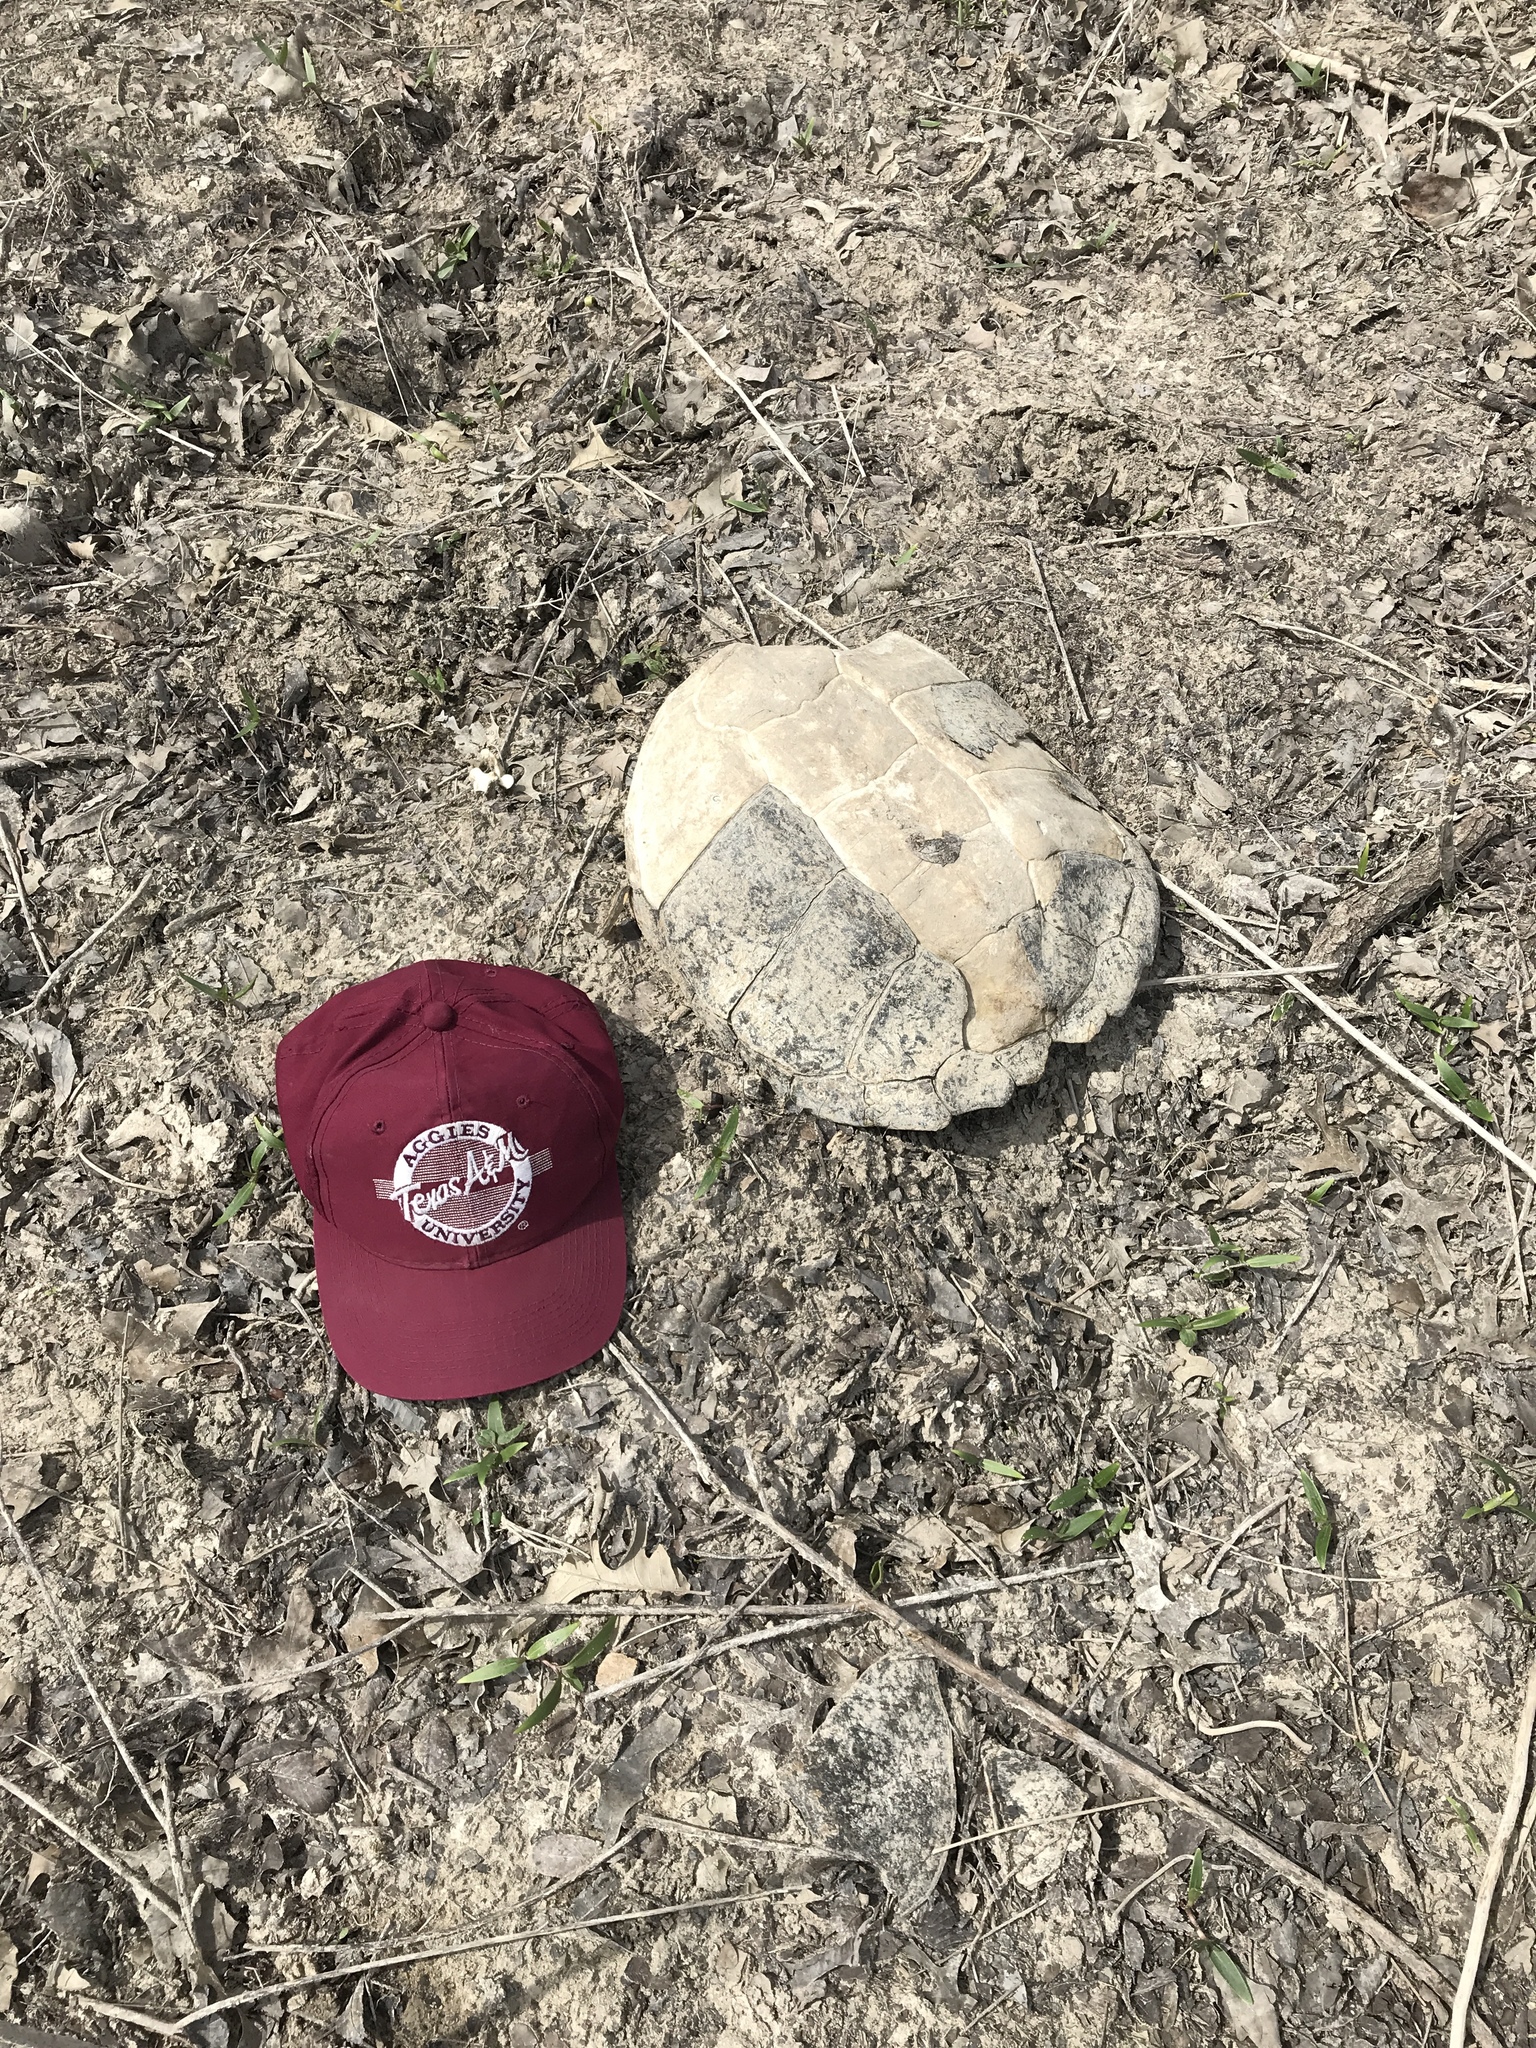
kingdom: Animalia
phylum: Chordata
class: Testudines
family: Chelydridae
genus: Chelydra
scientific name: Chelydra serpentina
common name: Common snapping turtle
